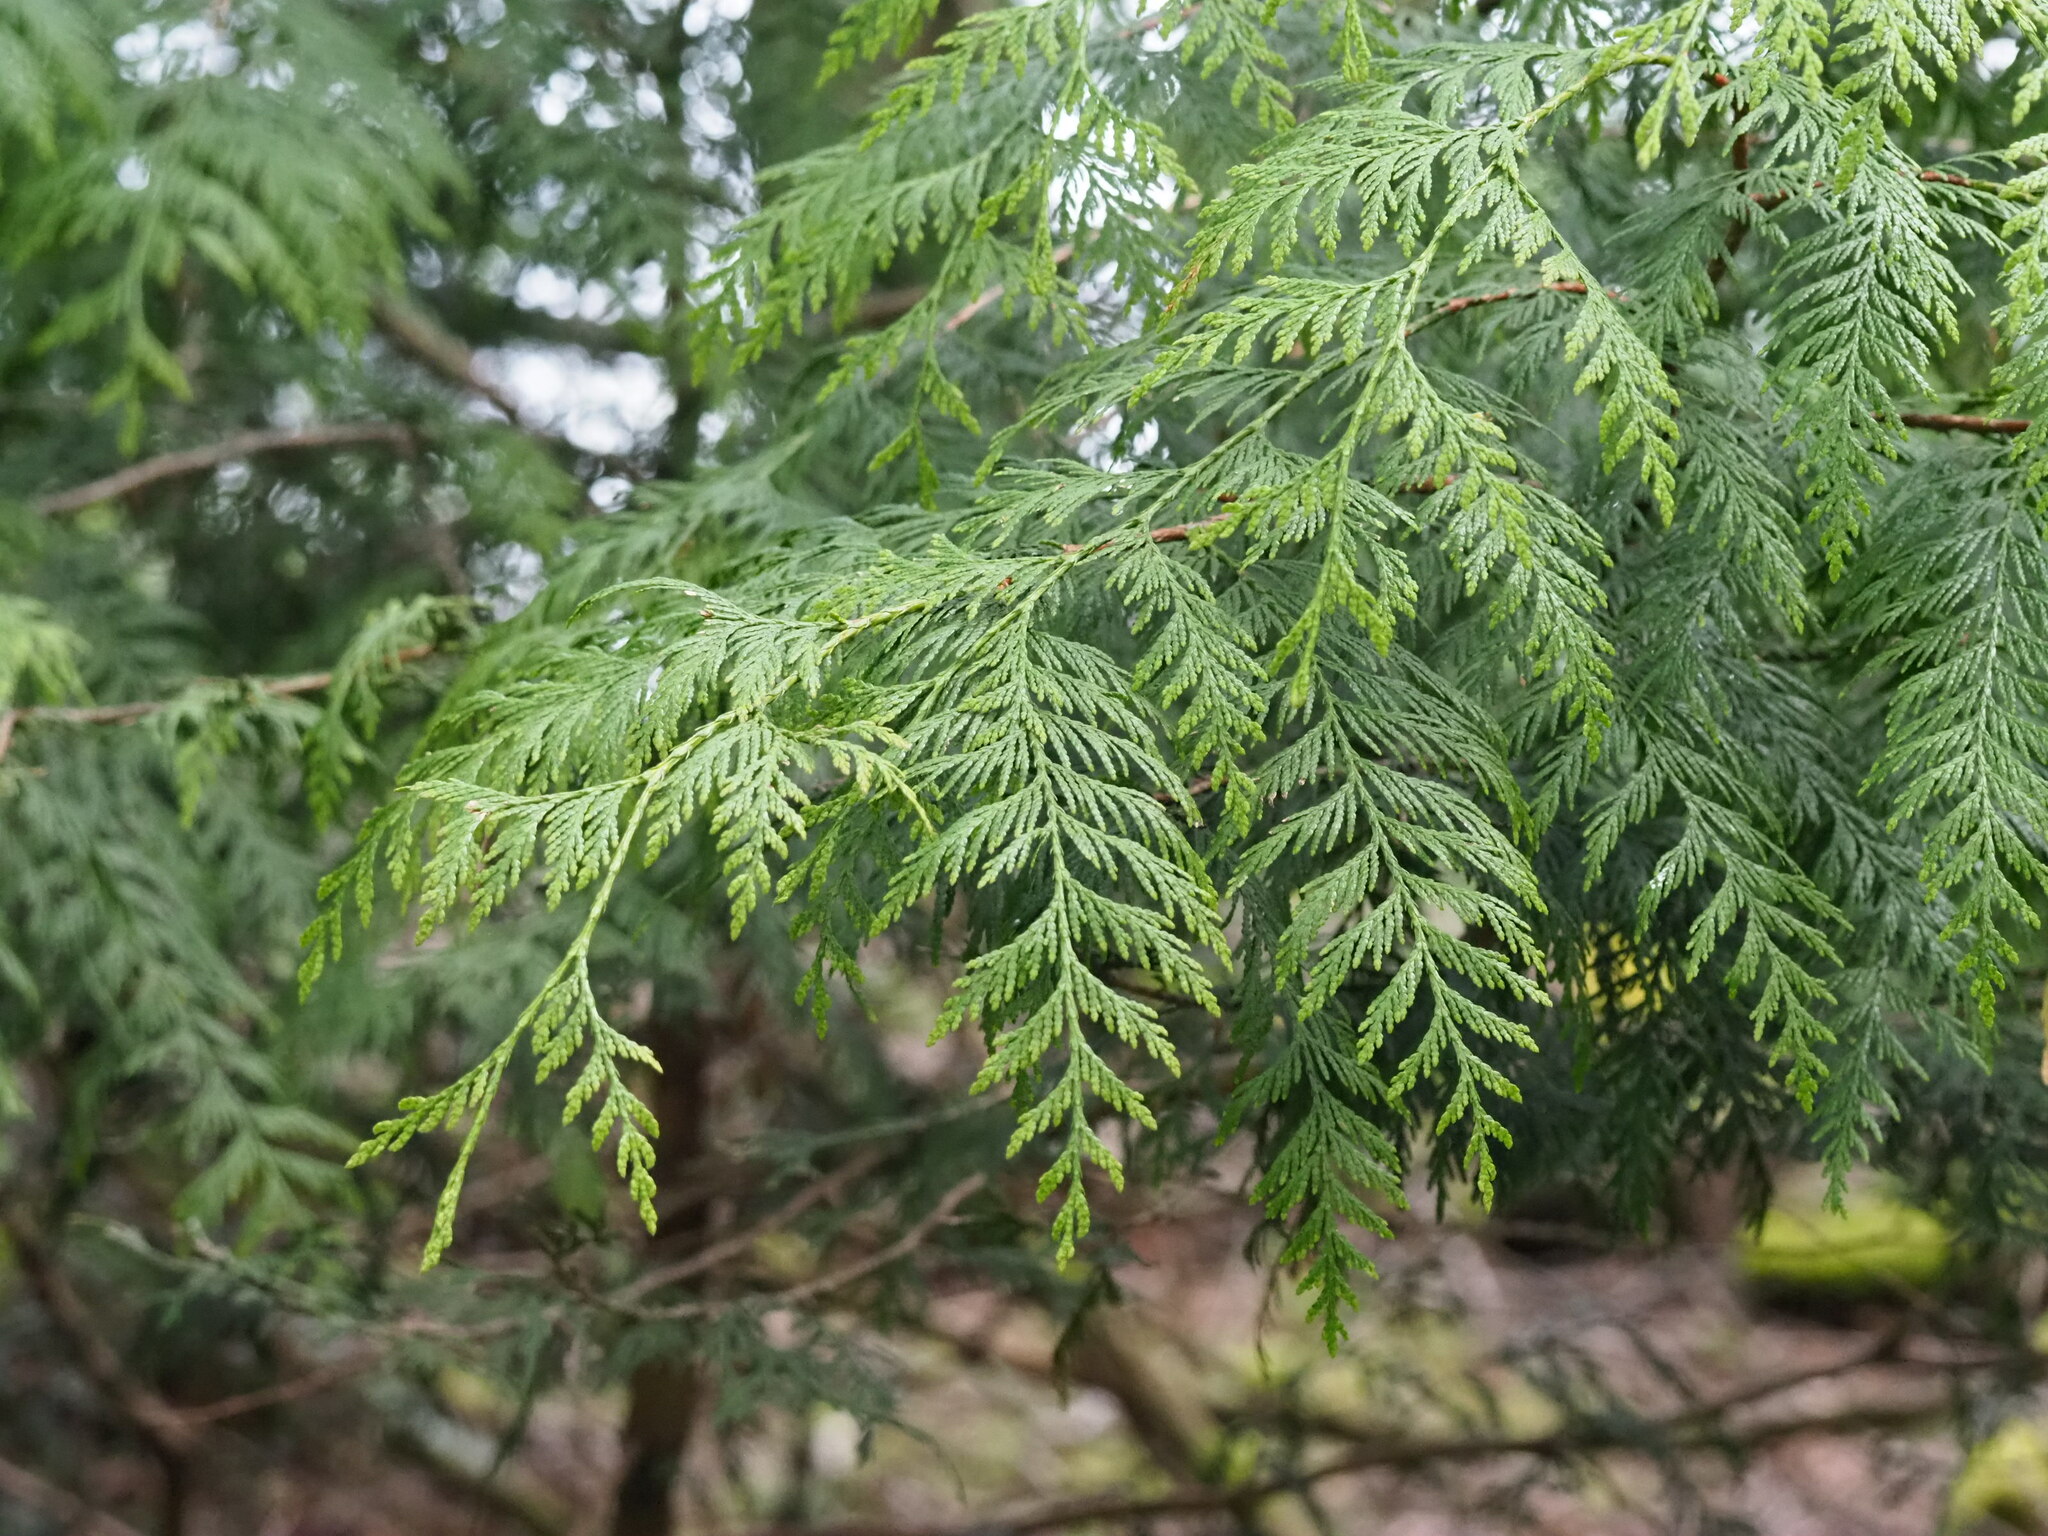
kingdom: Plantae
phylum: Tracheophyta
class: Pinopsida
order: Pinales
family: Cupressaceae
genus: Thuja
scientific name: Thuja plicata
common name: Western red-cedar
